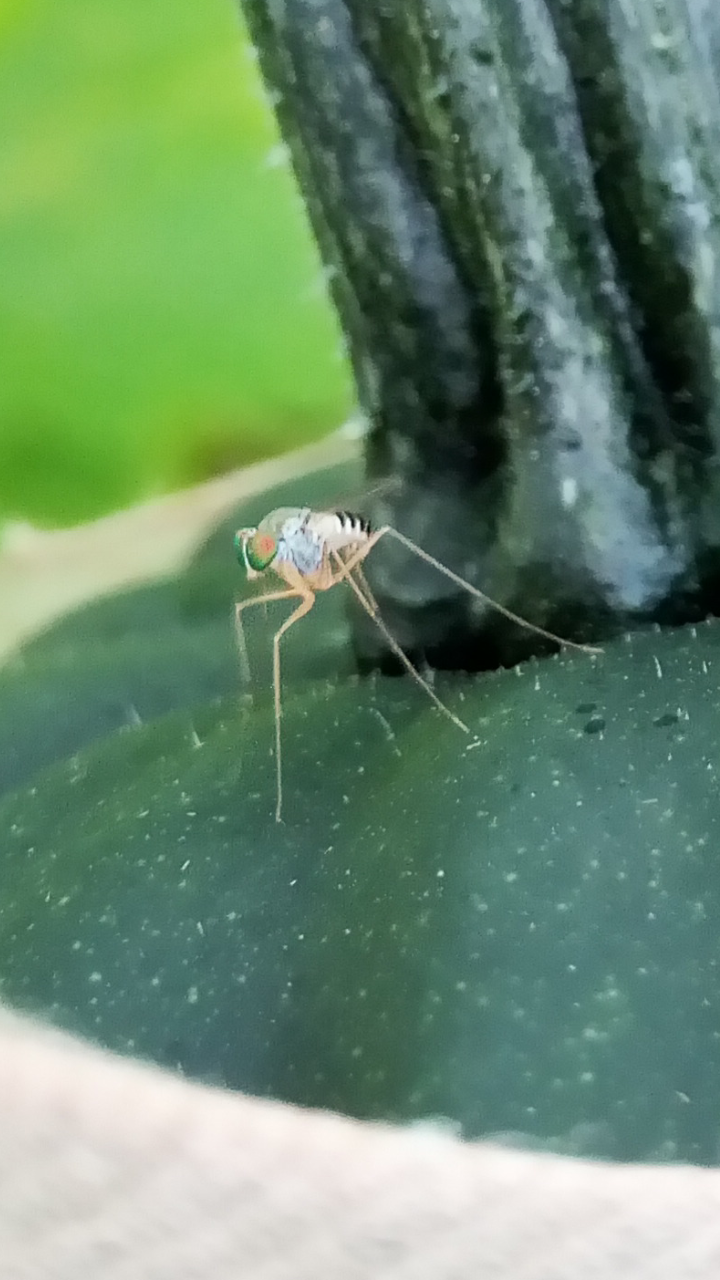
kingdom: Animalia
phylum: Arthropoda
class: Insecta
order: Diptera
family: Dolichopodidae
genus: Dactylomyia
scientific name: Dactylomyia lateralis
